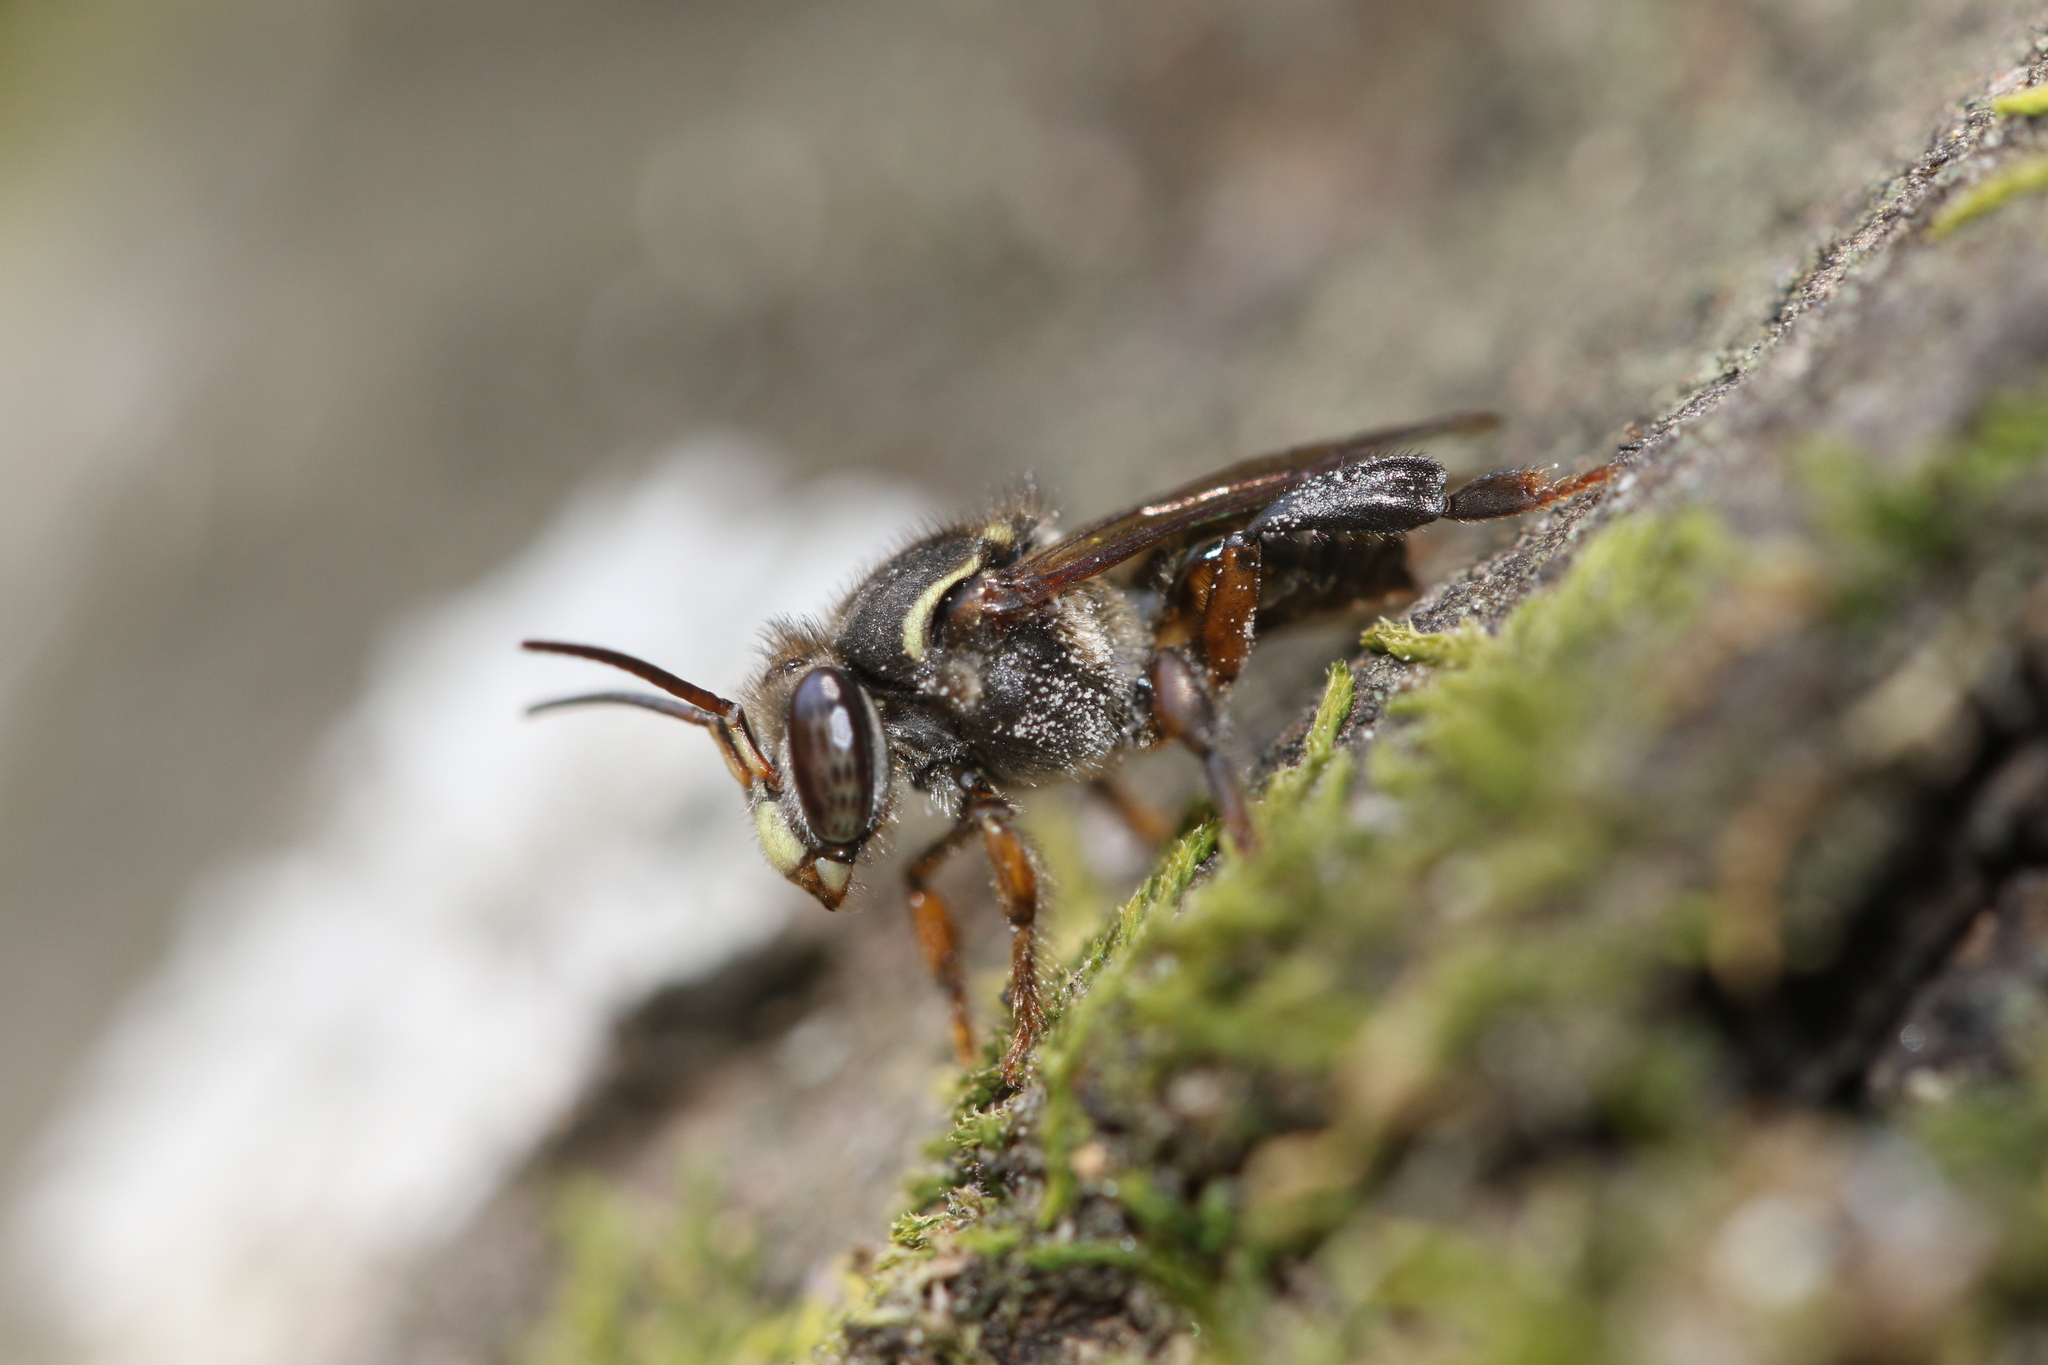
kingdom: Animalia
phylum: Arthropoda
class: Insecta
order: Hymenoptera
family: Apidae
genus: Cephalotrigona
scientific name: Cephalotrigona capitata
